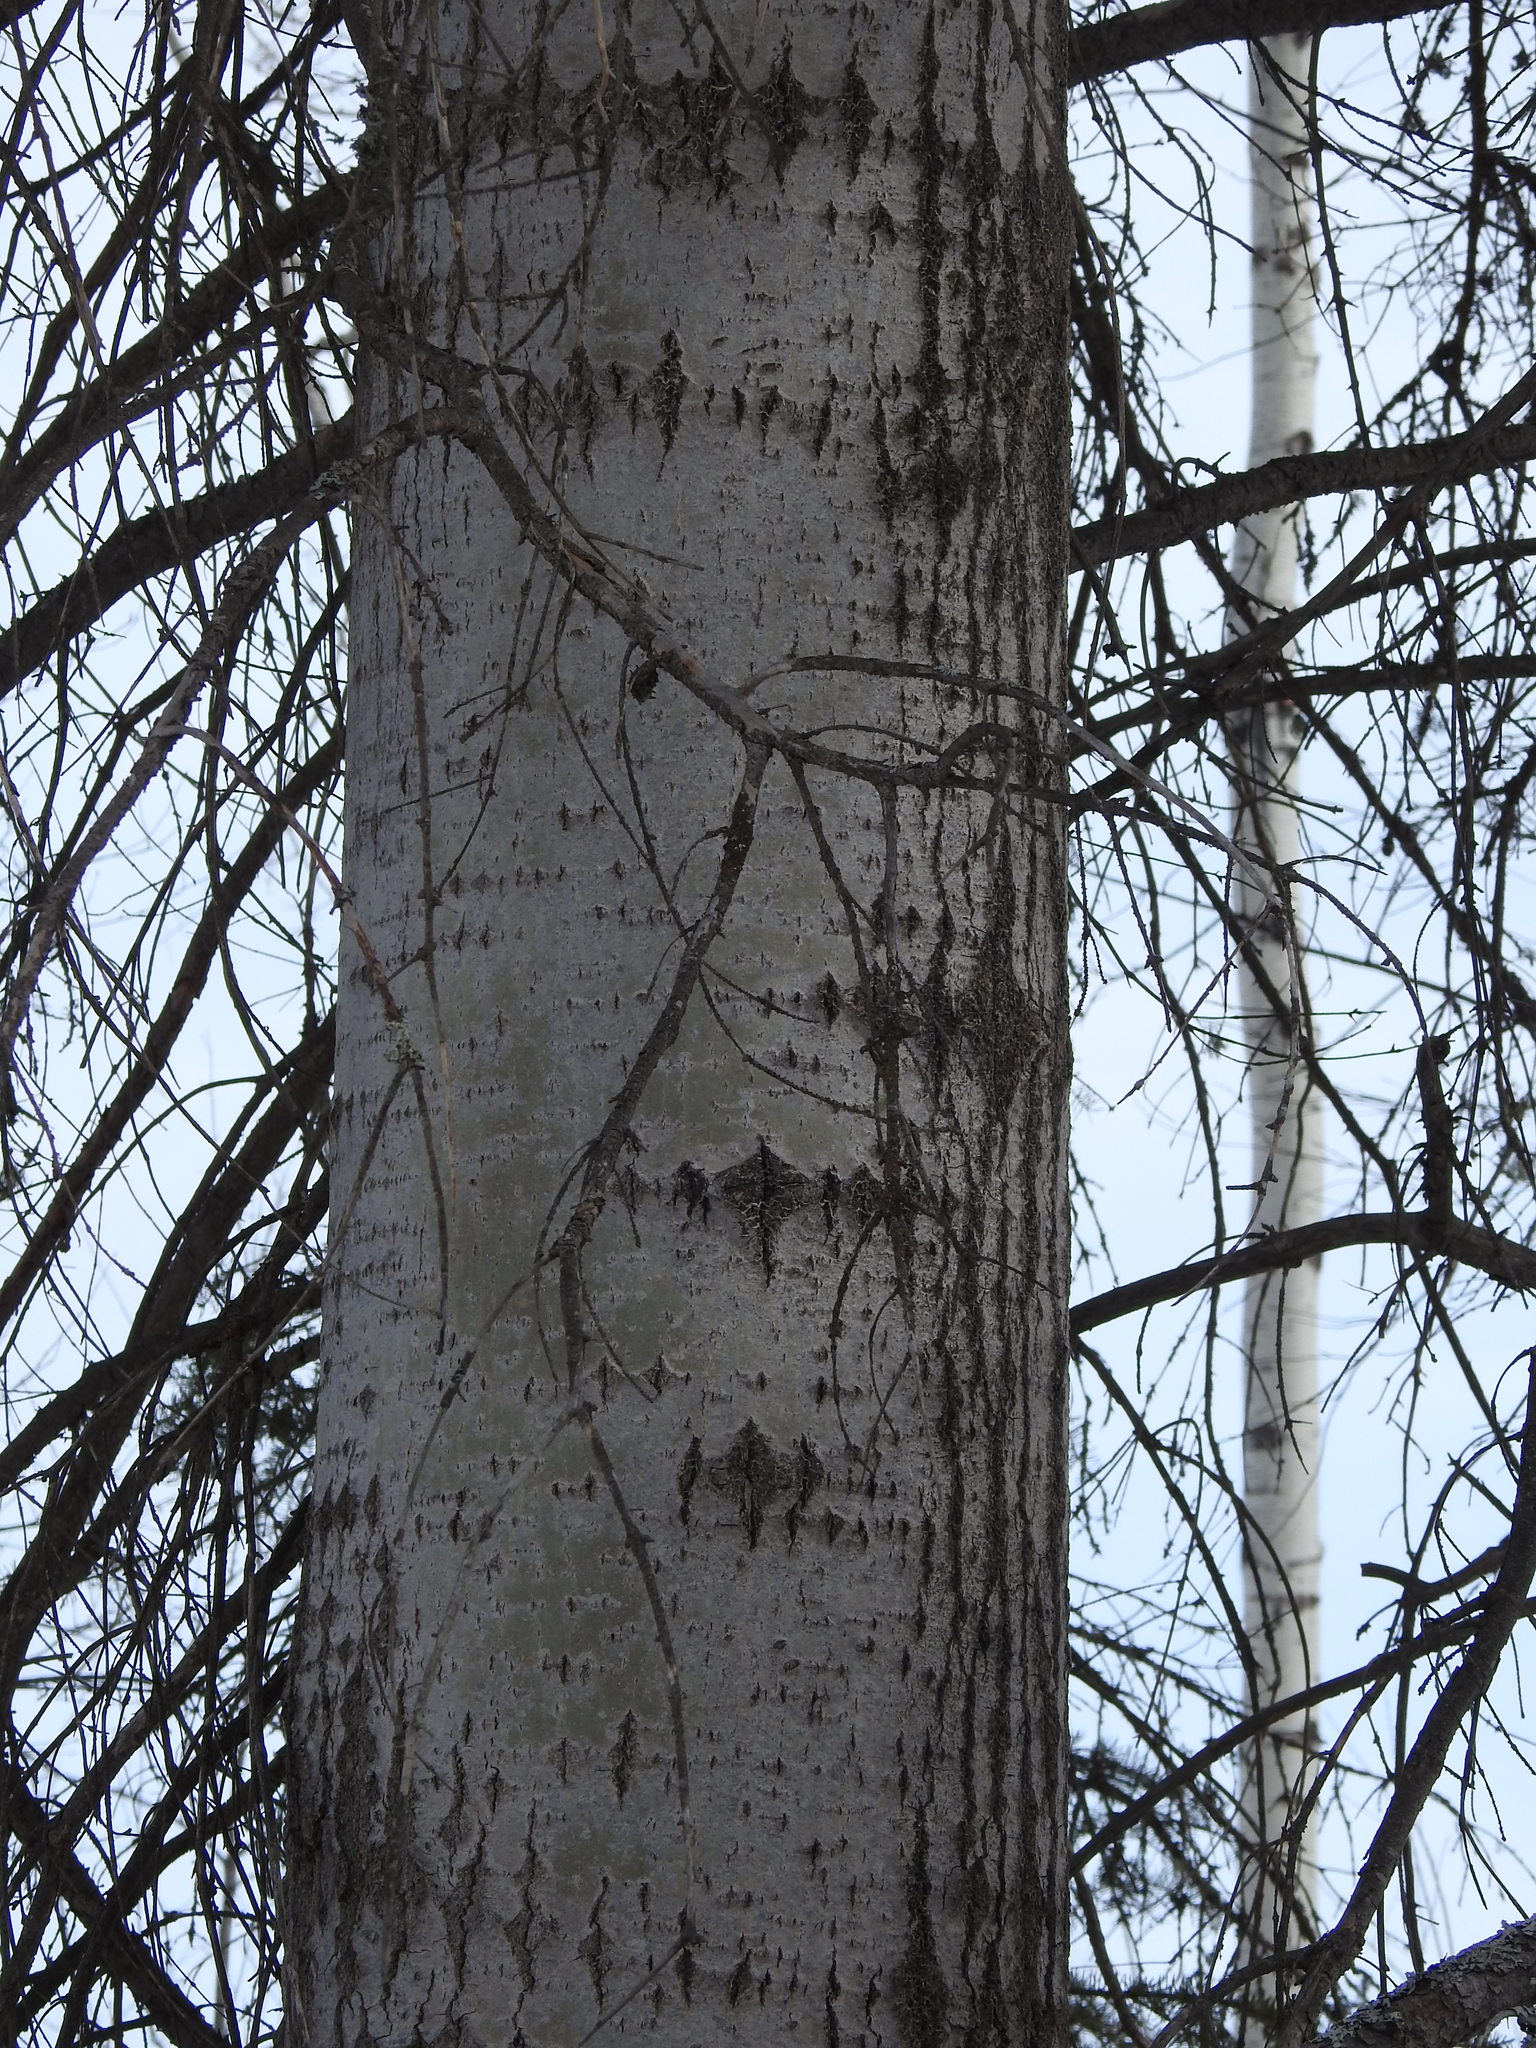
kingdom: Plantae
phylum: Tracheophyta
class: Magnoliopsida
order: Malpighiales
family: Salicaceae
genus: Populus
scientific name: Populus tremuloides
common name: Quaking aspen
